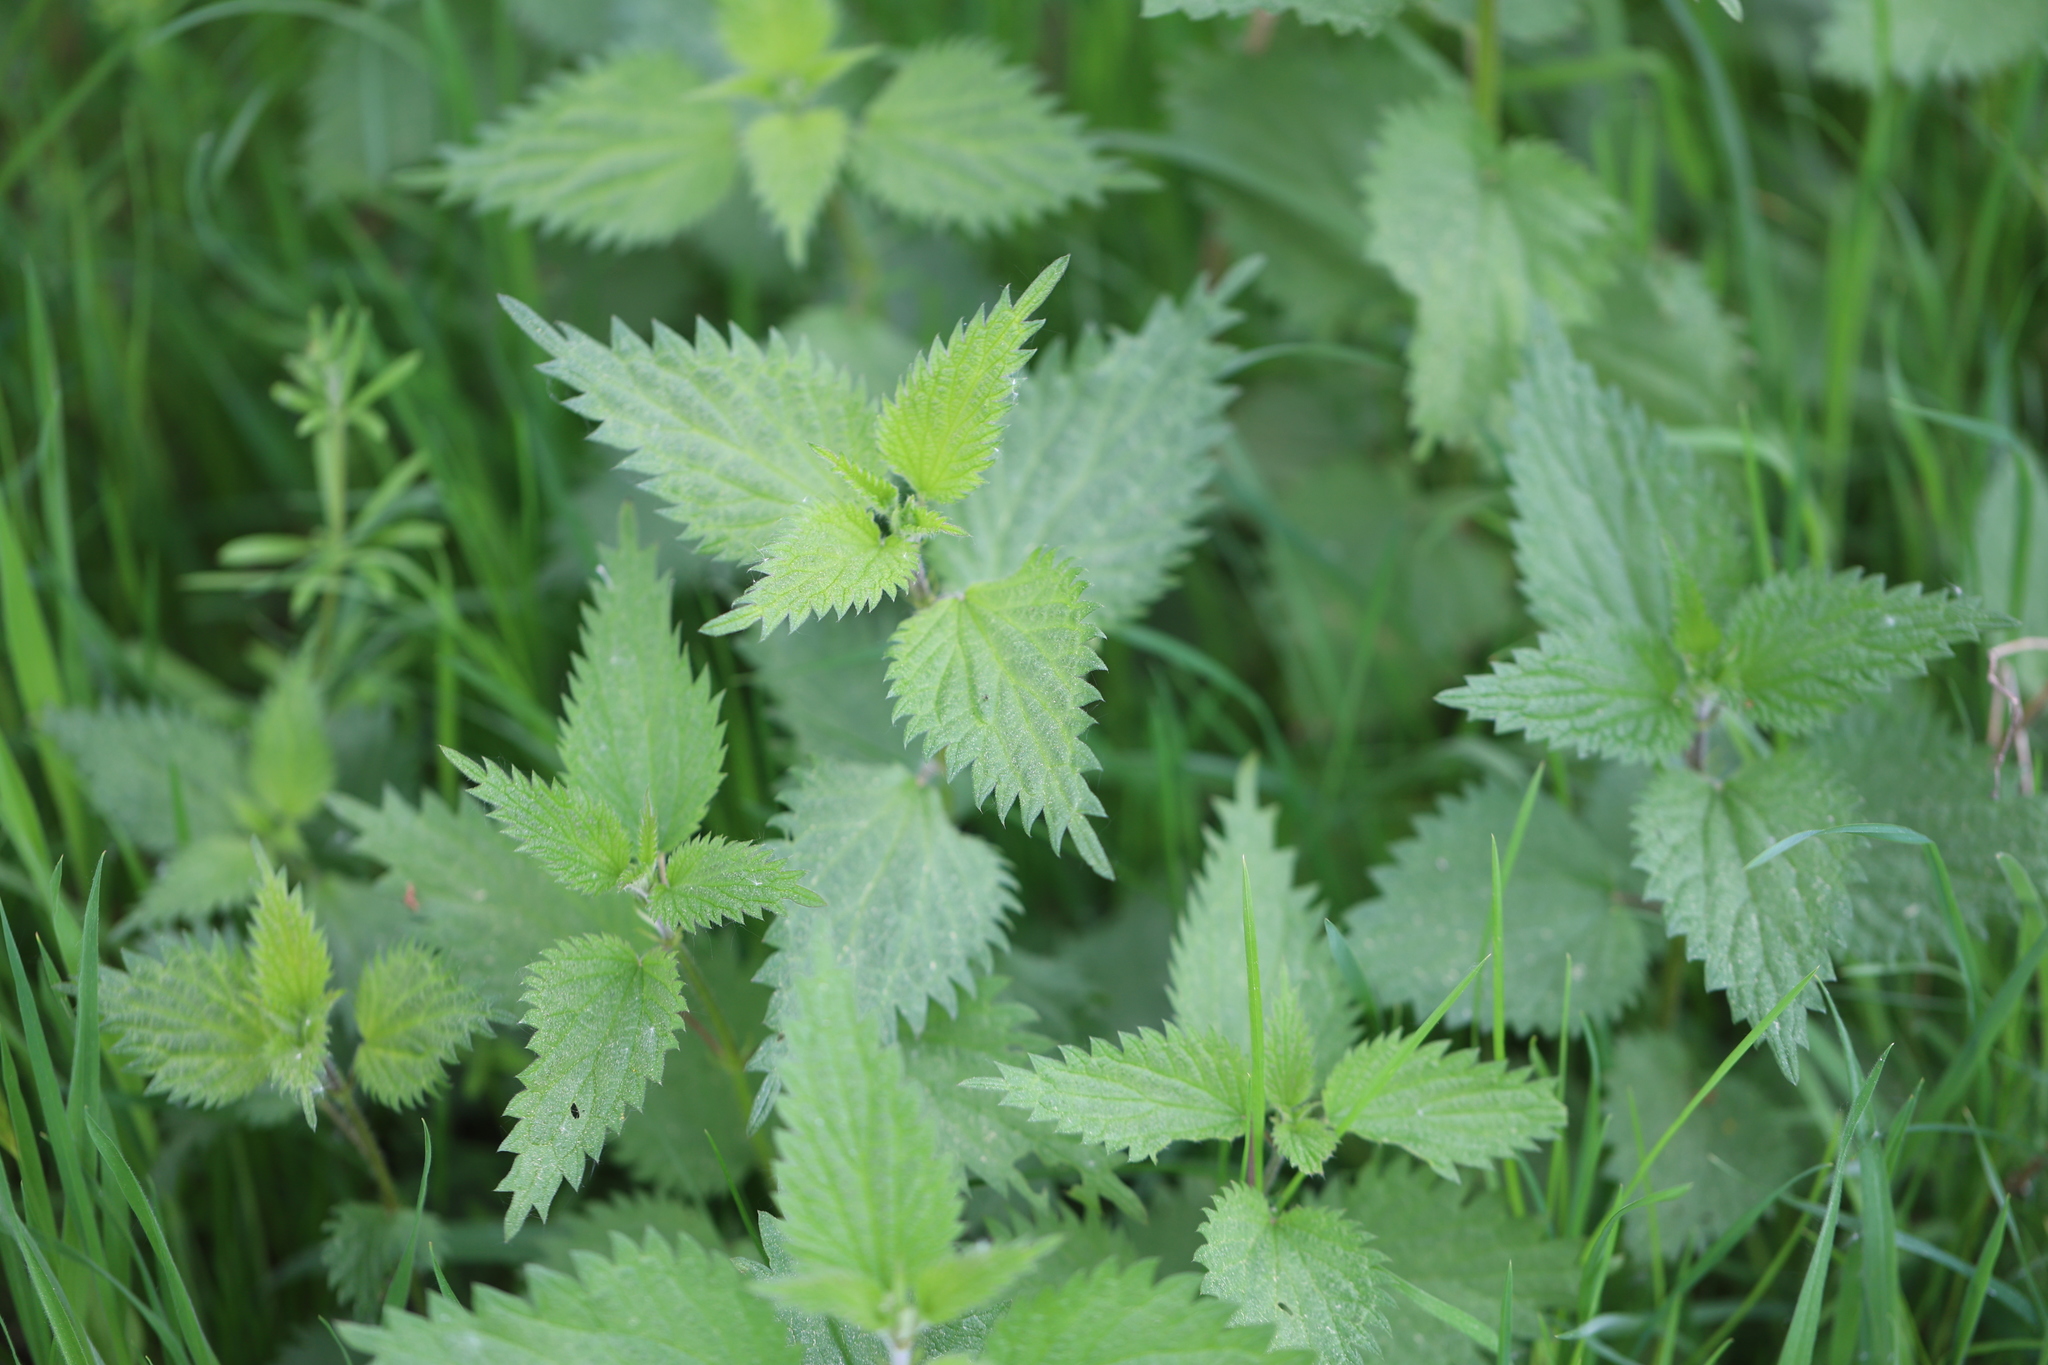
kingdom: Plantae
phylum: Tracheophyta
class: Magnoliopsida
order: Rosales
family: Urticaceae
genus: Urtica
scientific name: Urtica dioica
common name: Common nettle
